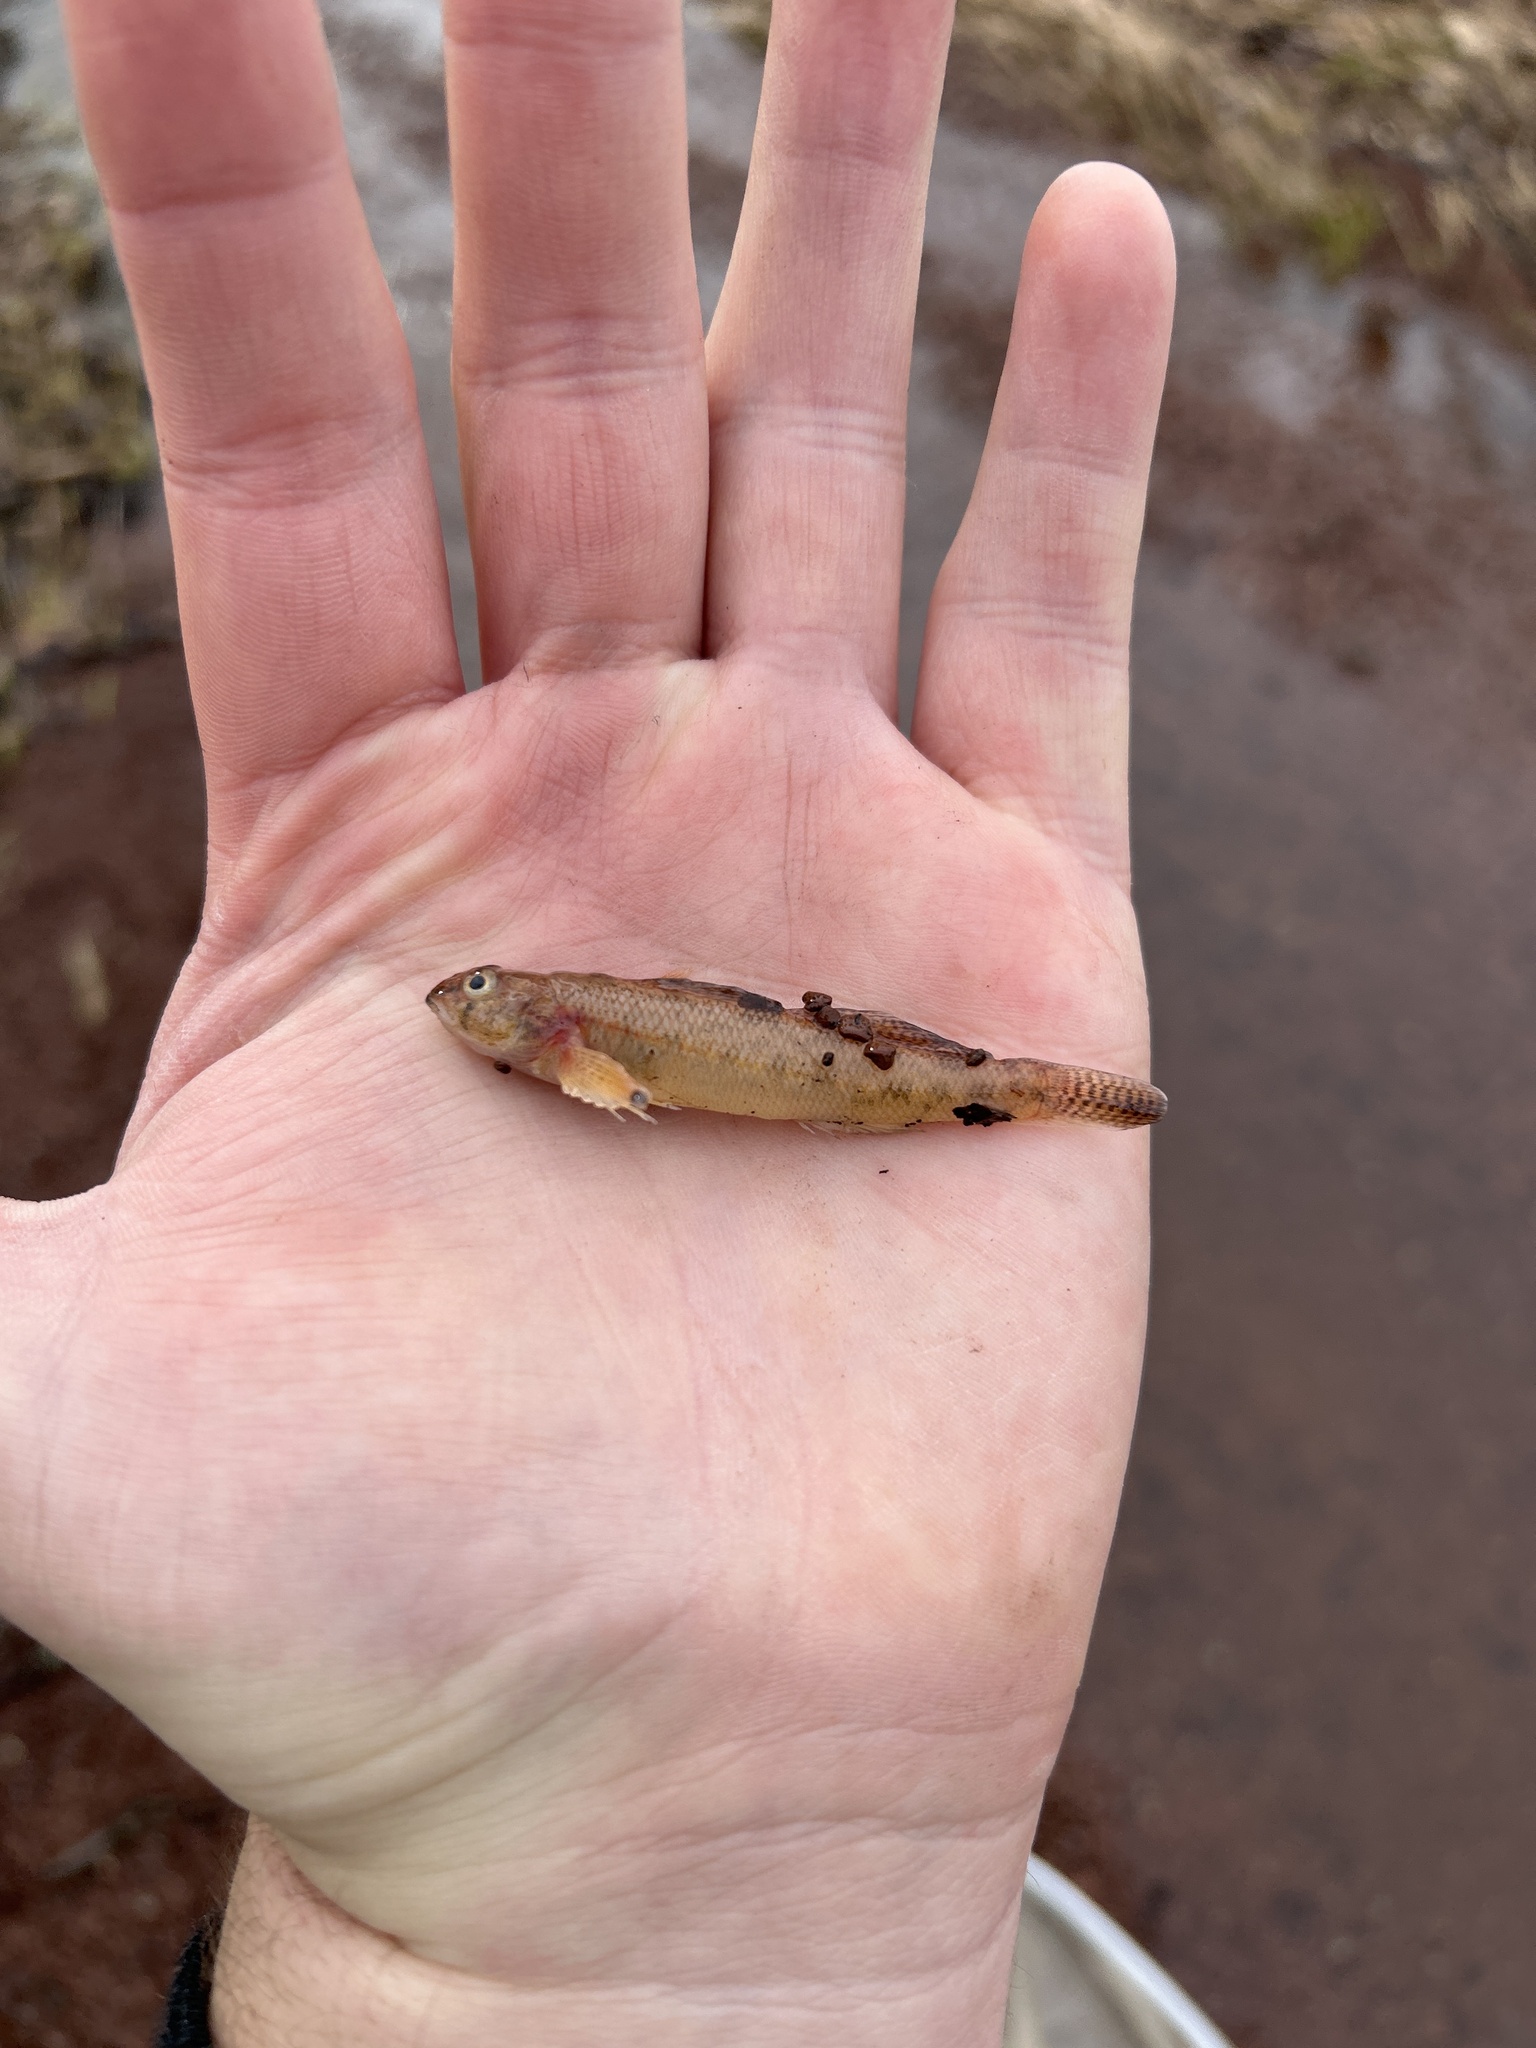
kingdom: Animalia
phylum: Chordata
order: Perciformes
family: Percidae
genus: Etheostoma
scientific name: Etheostoma olmstedi
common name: Tessellated darter
